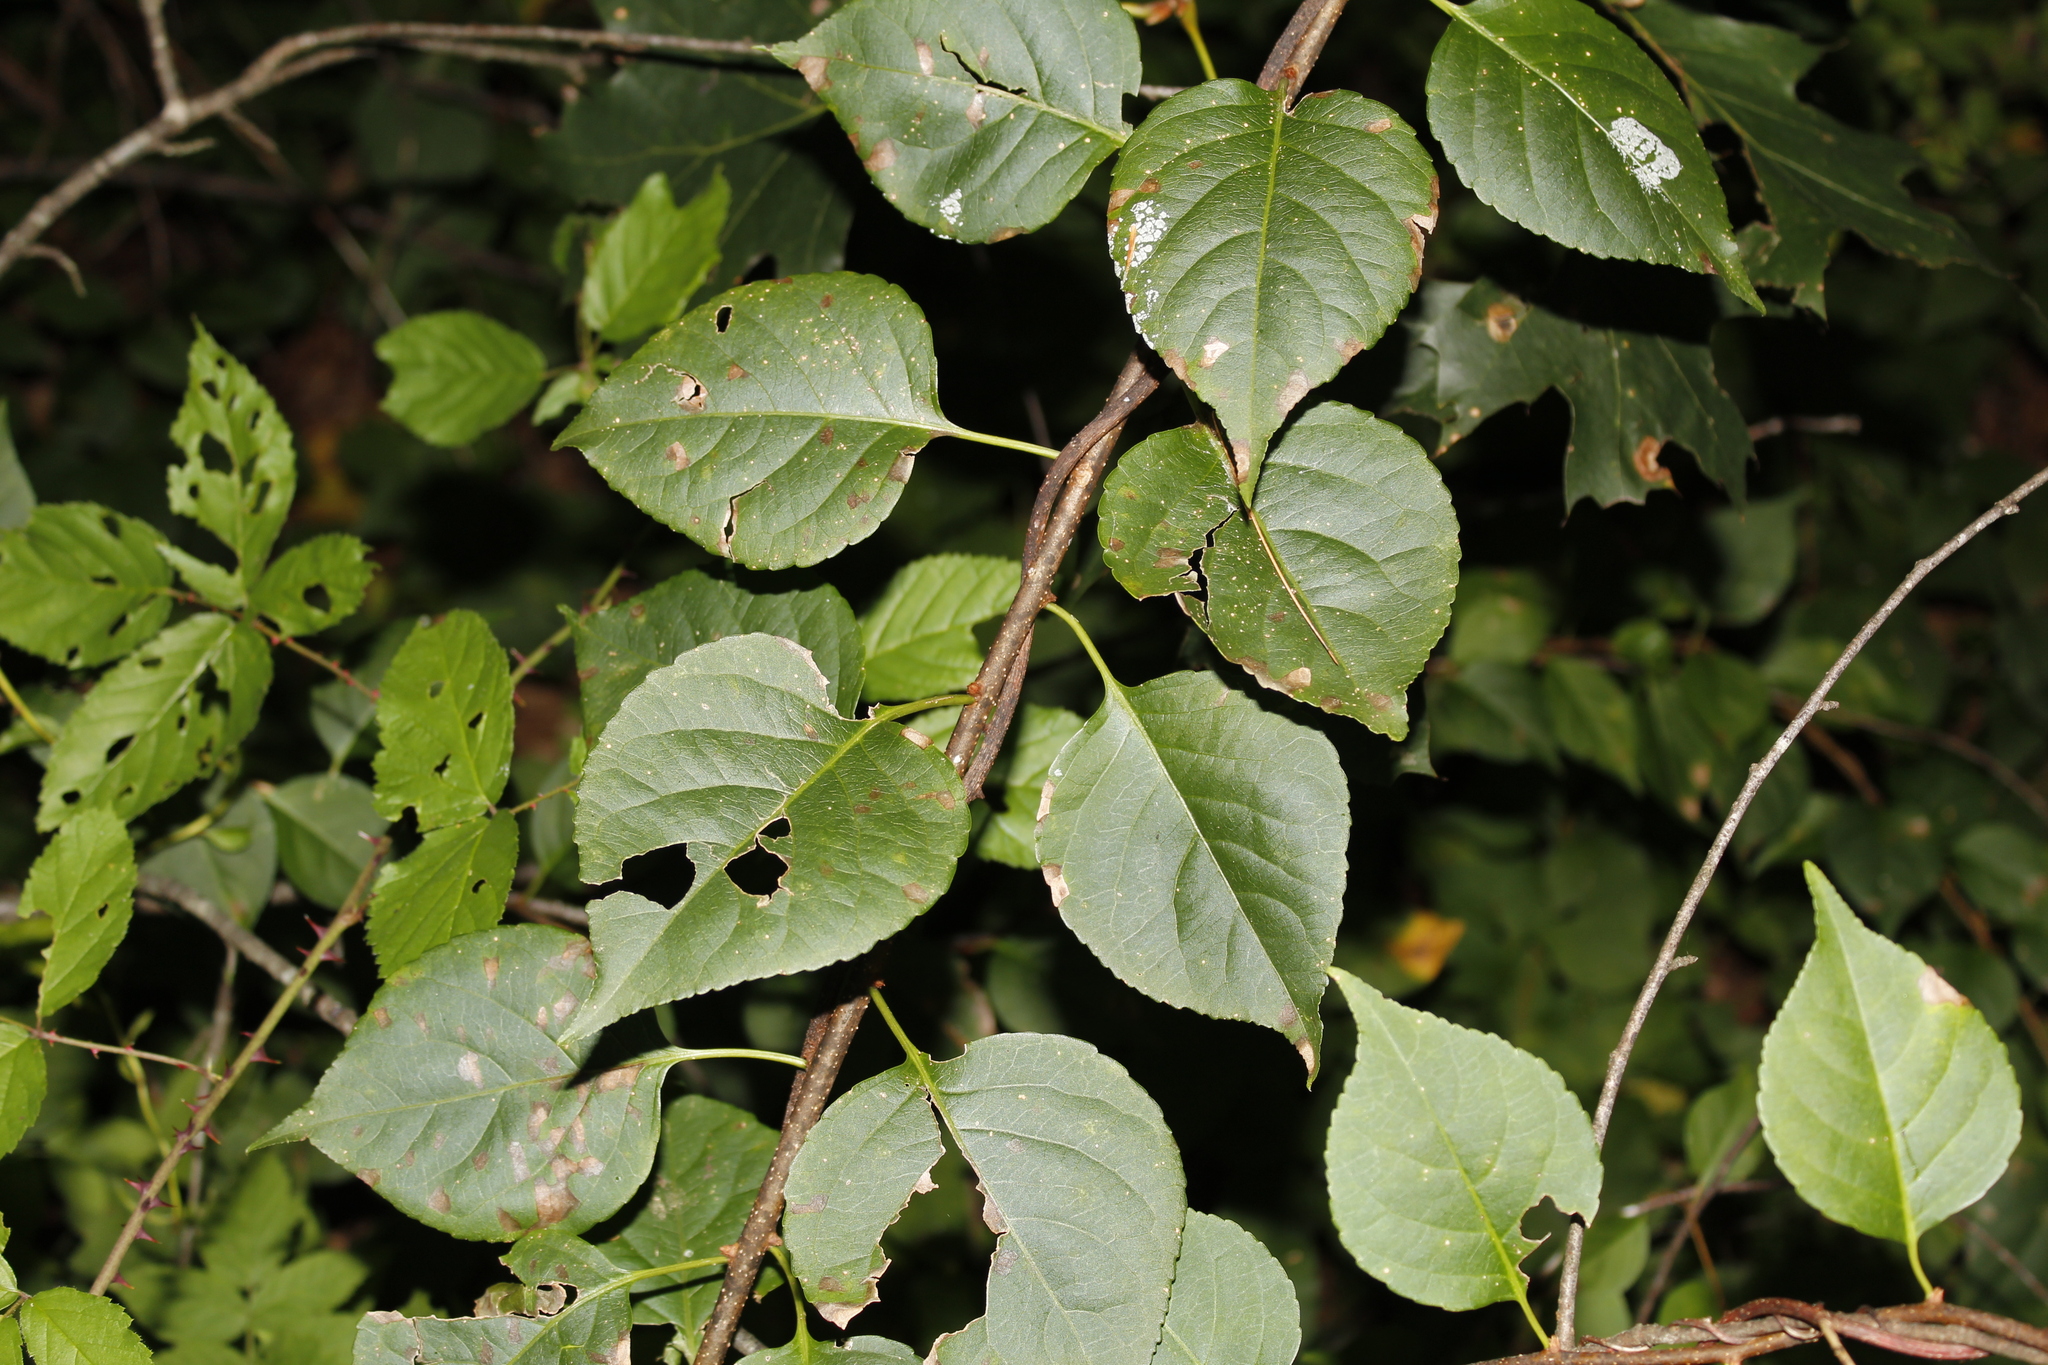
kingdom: Plantae
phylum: Tracheophyta
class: Magnoliopsida
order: Celastrales
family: Celastraceae
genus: Celastrus
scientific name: Celastrus orbiculatus
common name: Oriental bittersweet
